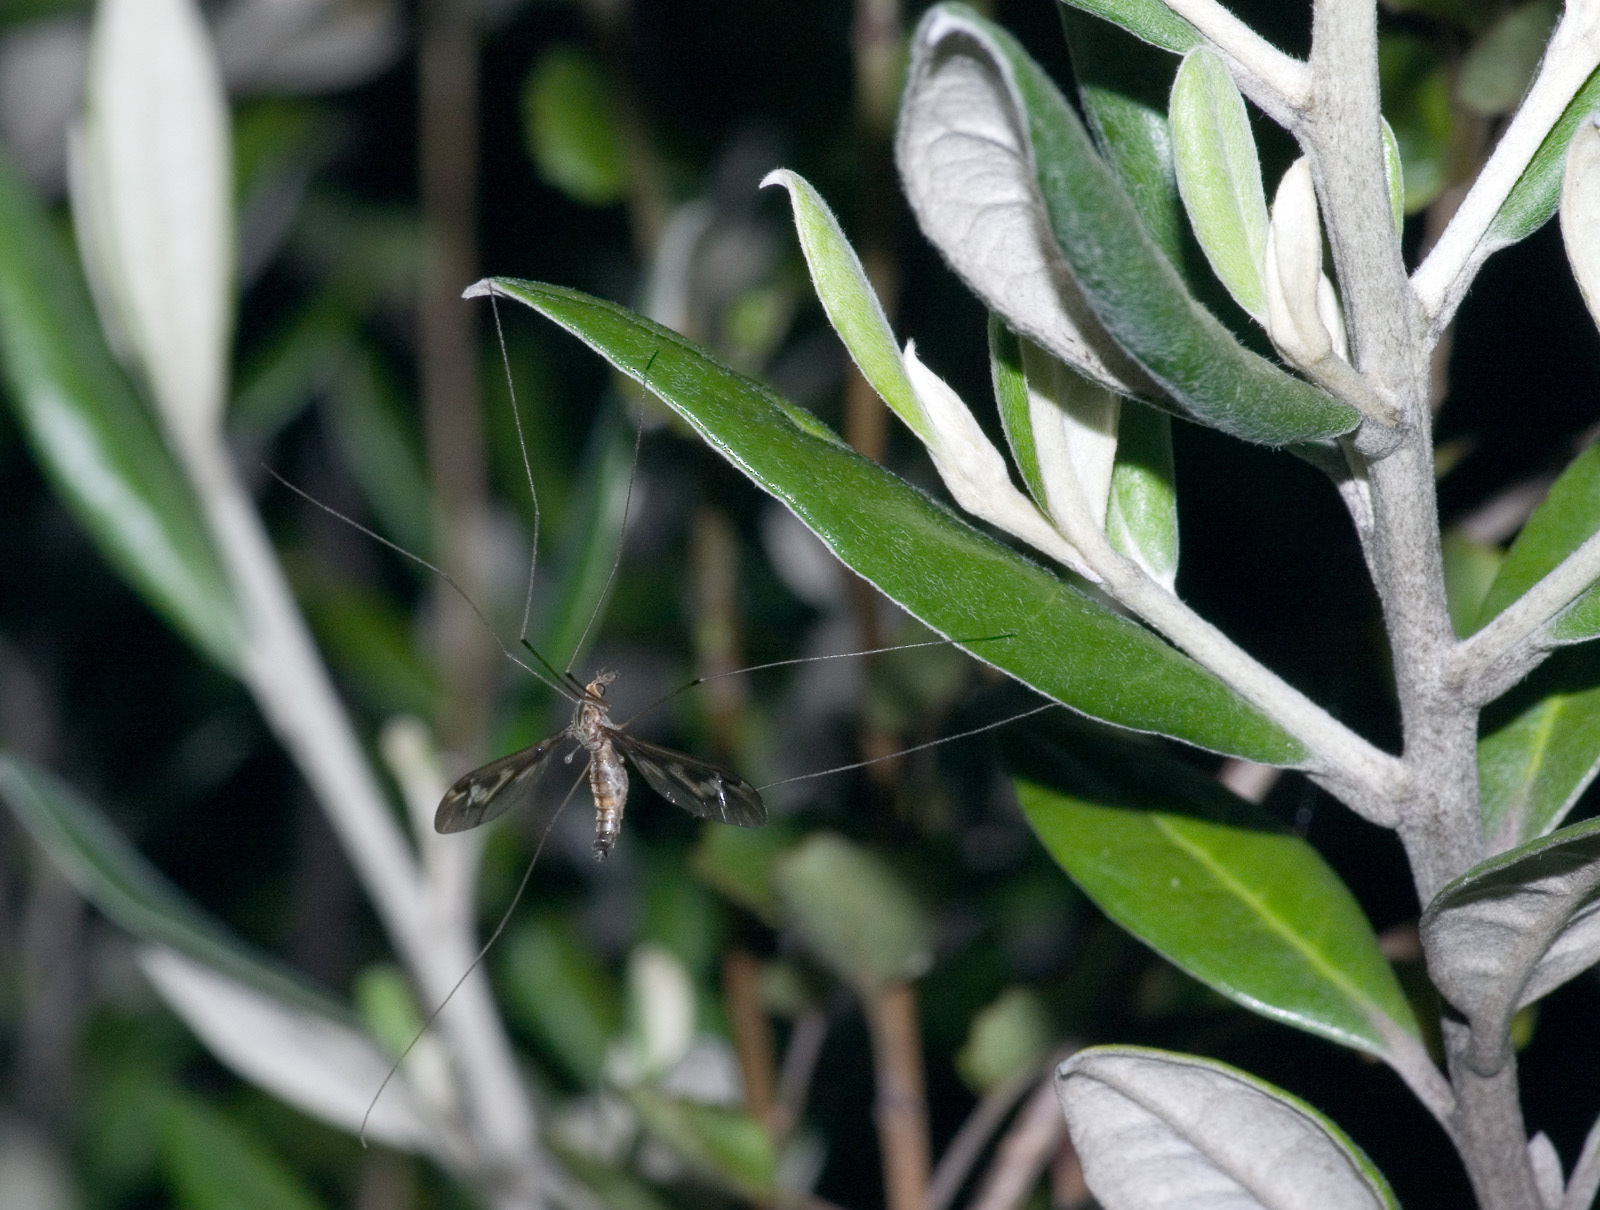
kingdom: Animalia
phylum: Arthropoda
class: Insecta
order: Diptera
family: Tipulidae
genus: Leptotarsus
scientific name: Leptotarsus huttoni
